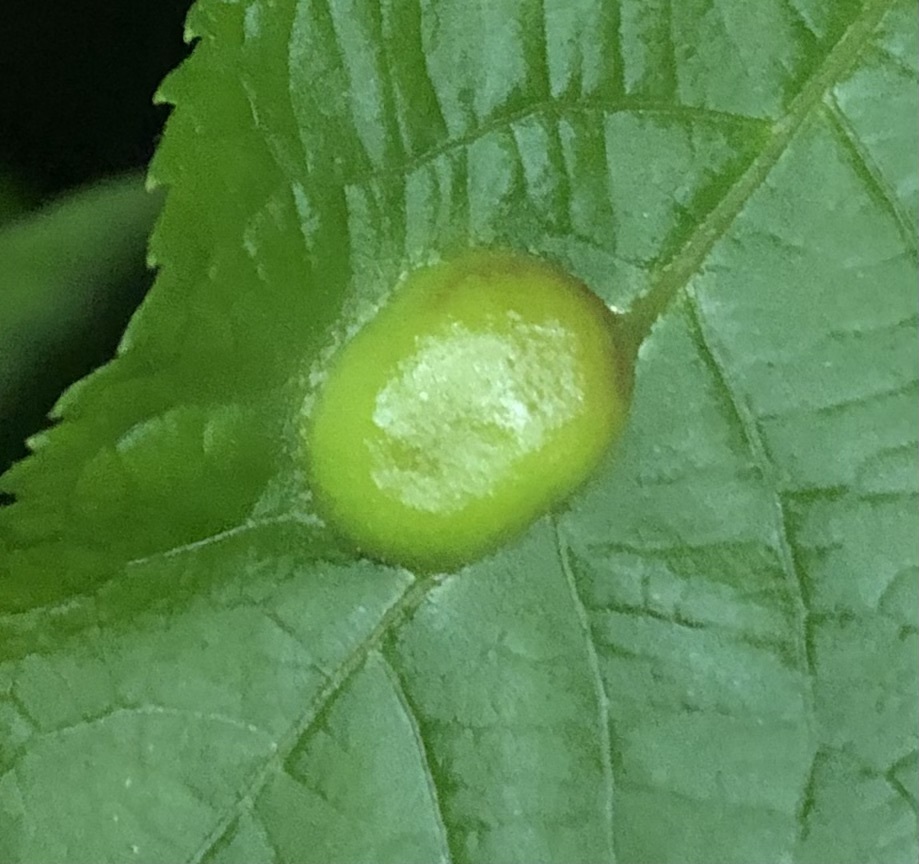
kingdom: Animalia
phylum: Arthropoda
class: Insecta
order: Hemiptera
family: Phylloxeridae
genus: Phylloxera
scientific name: Phylloxera caryae-scissa
